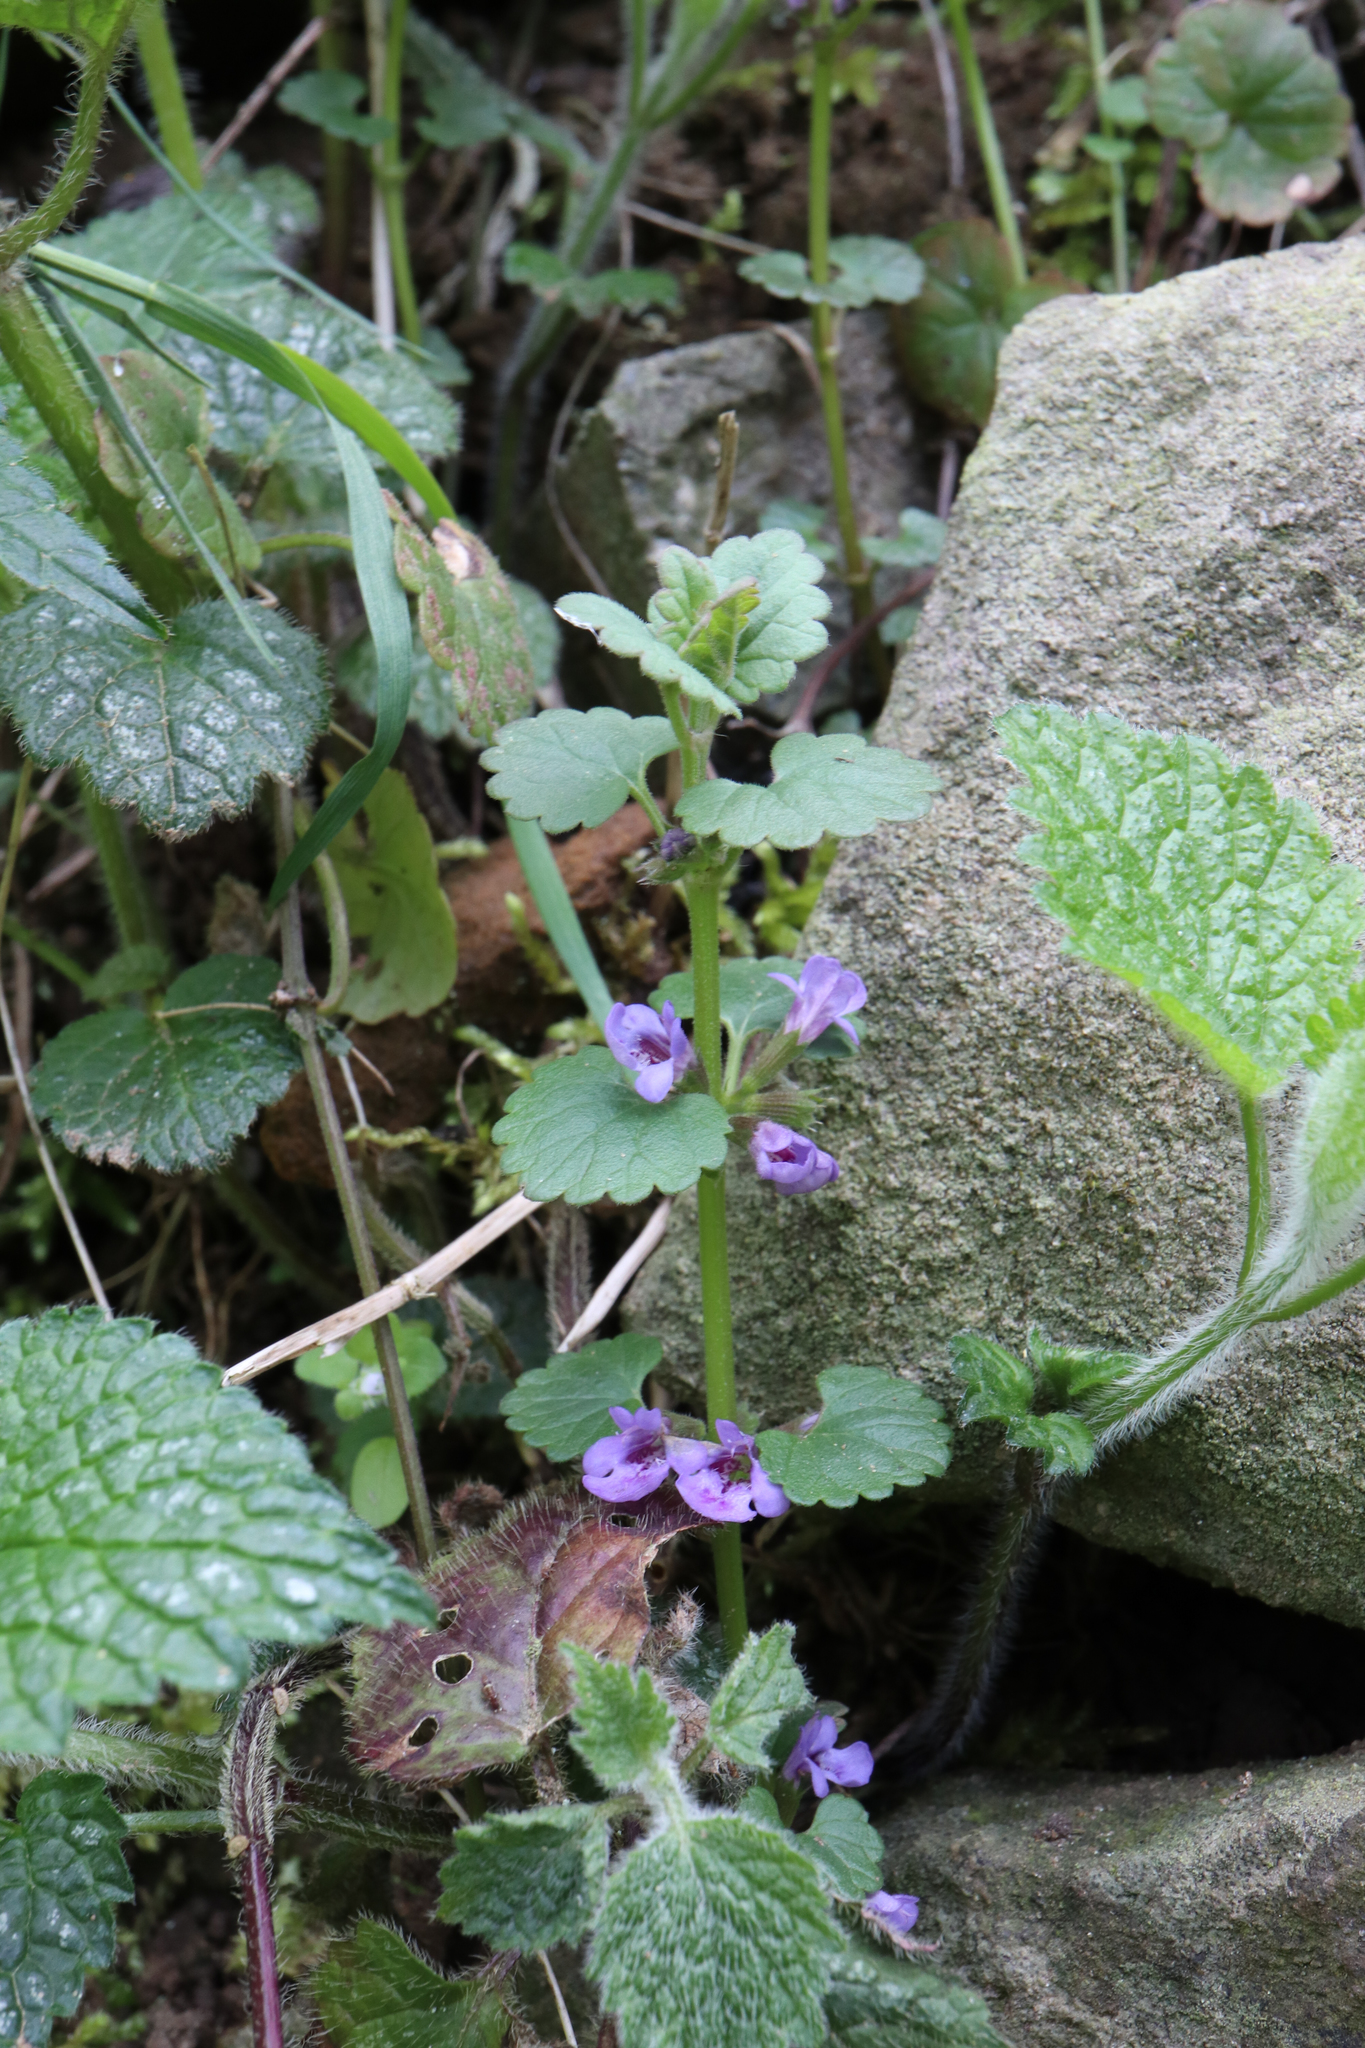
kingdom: Plantae
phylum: Tracheophyta
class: Magnoliopsida
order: Lamiales
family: Lamiaceae
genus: Glechoma
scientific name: Glechoma hederacea
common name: Ground ivy
